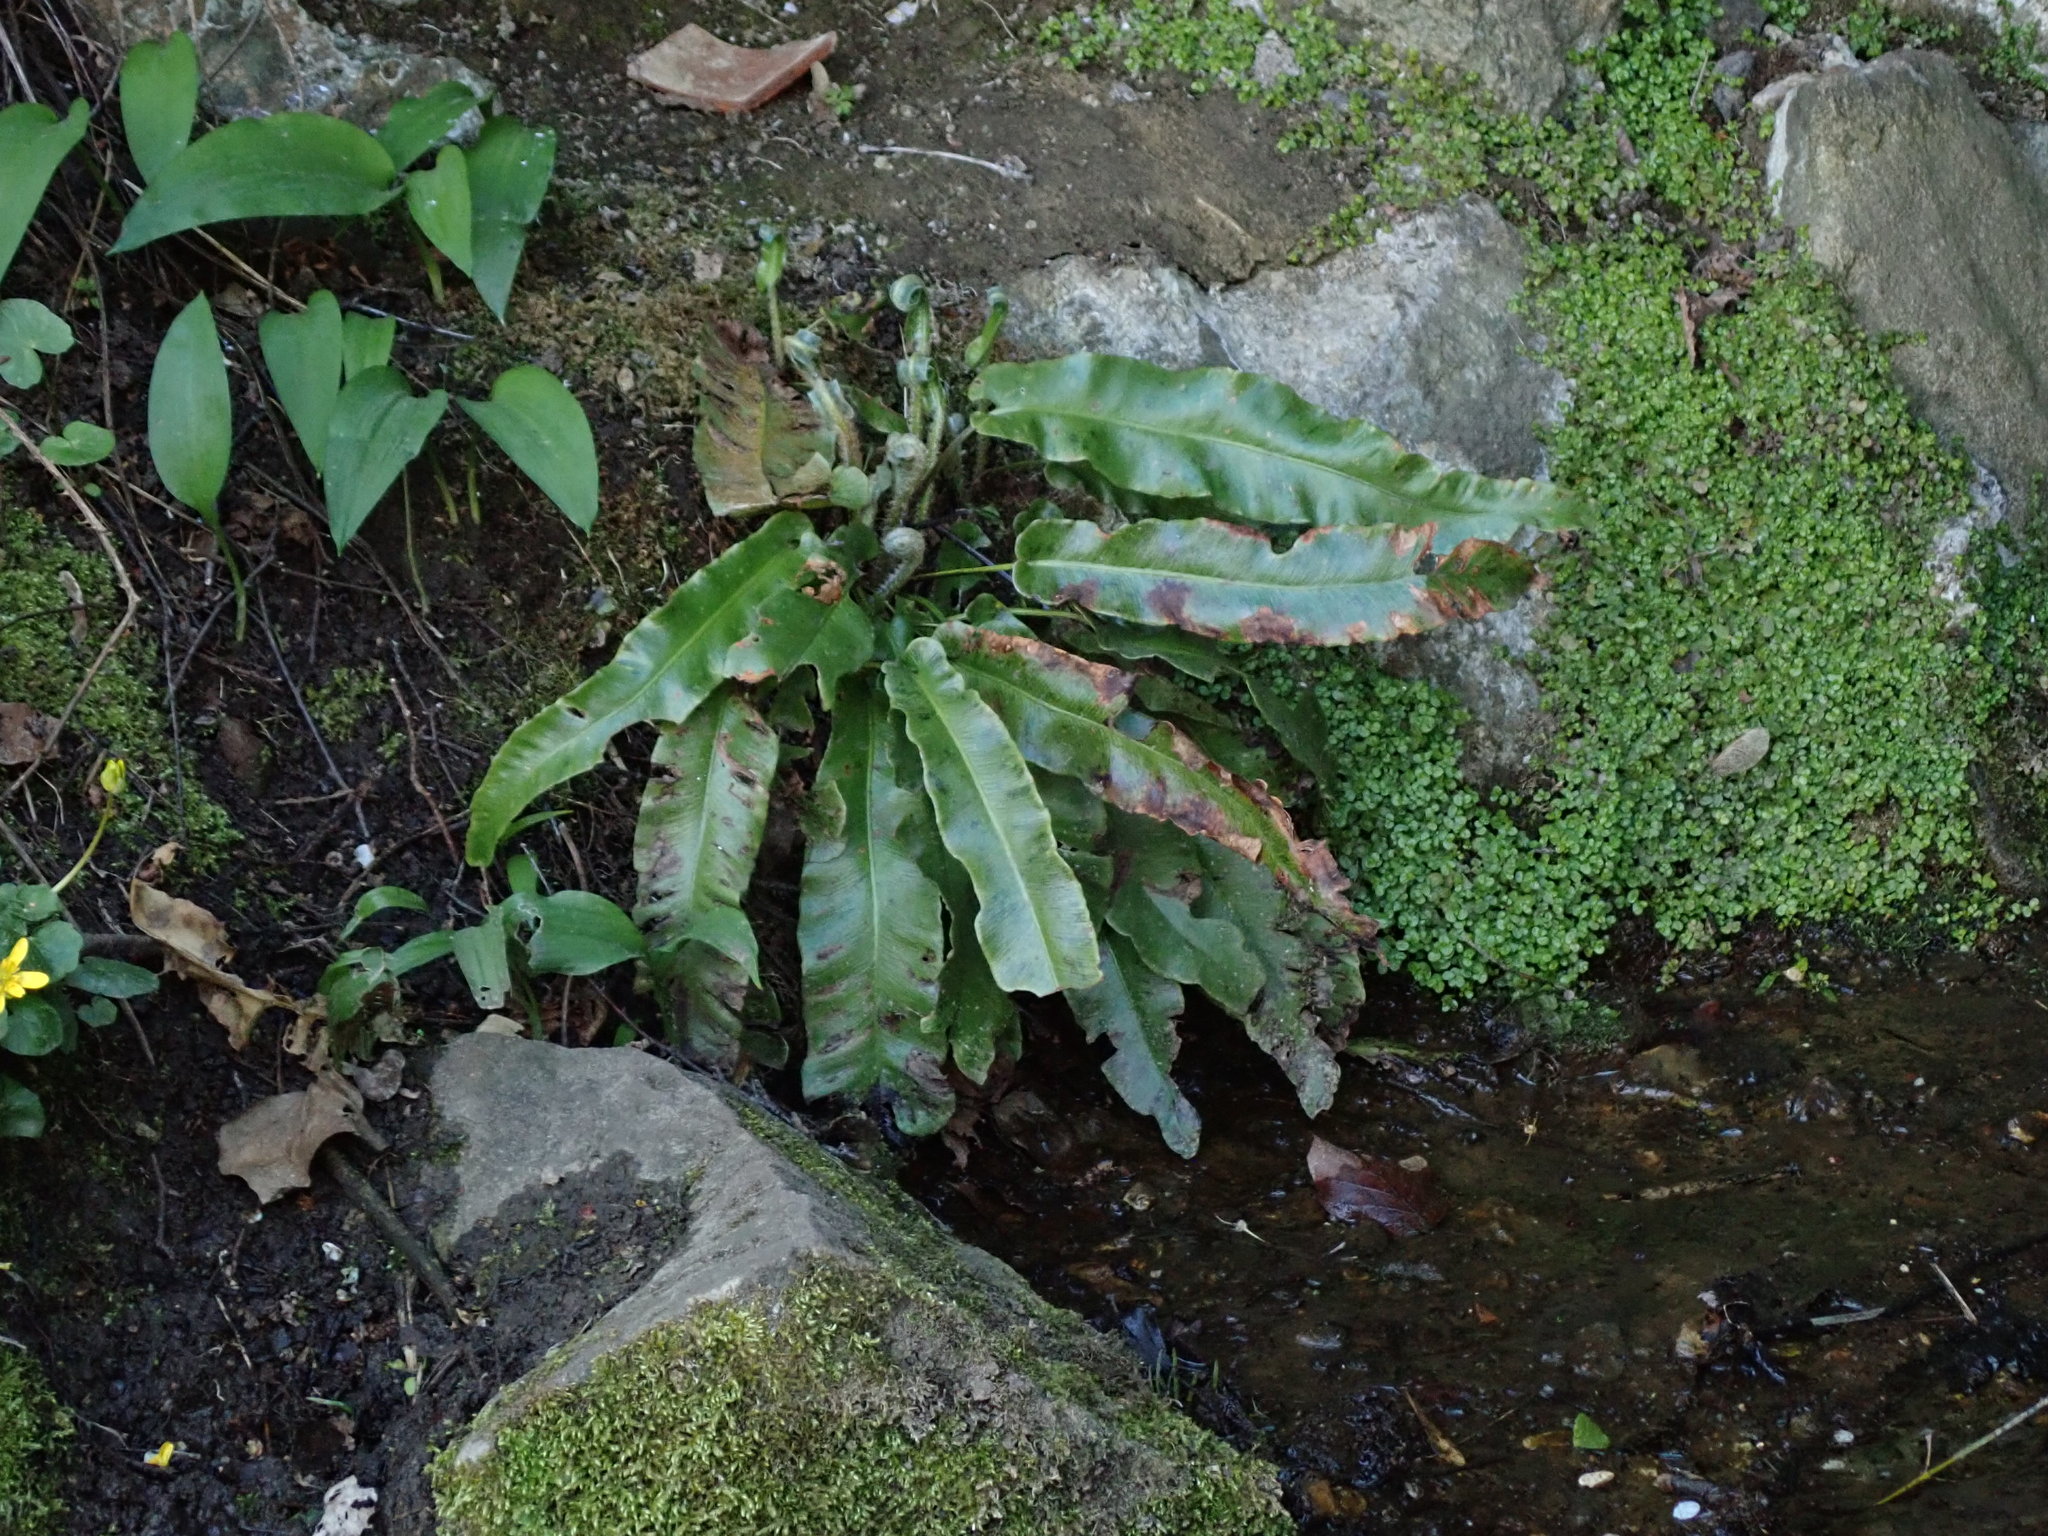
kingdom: Plantae
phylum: Tracheophyta
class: Polypodiopsida
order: Polypodiales
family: Aspleniaceae
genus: Asplenium
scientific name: Asplenium scolopendrium
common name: Hart's-tongue fern
